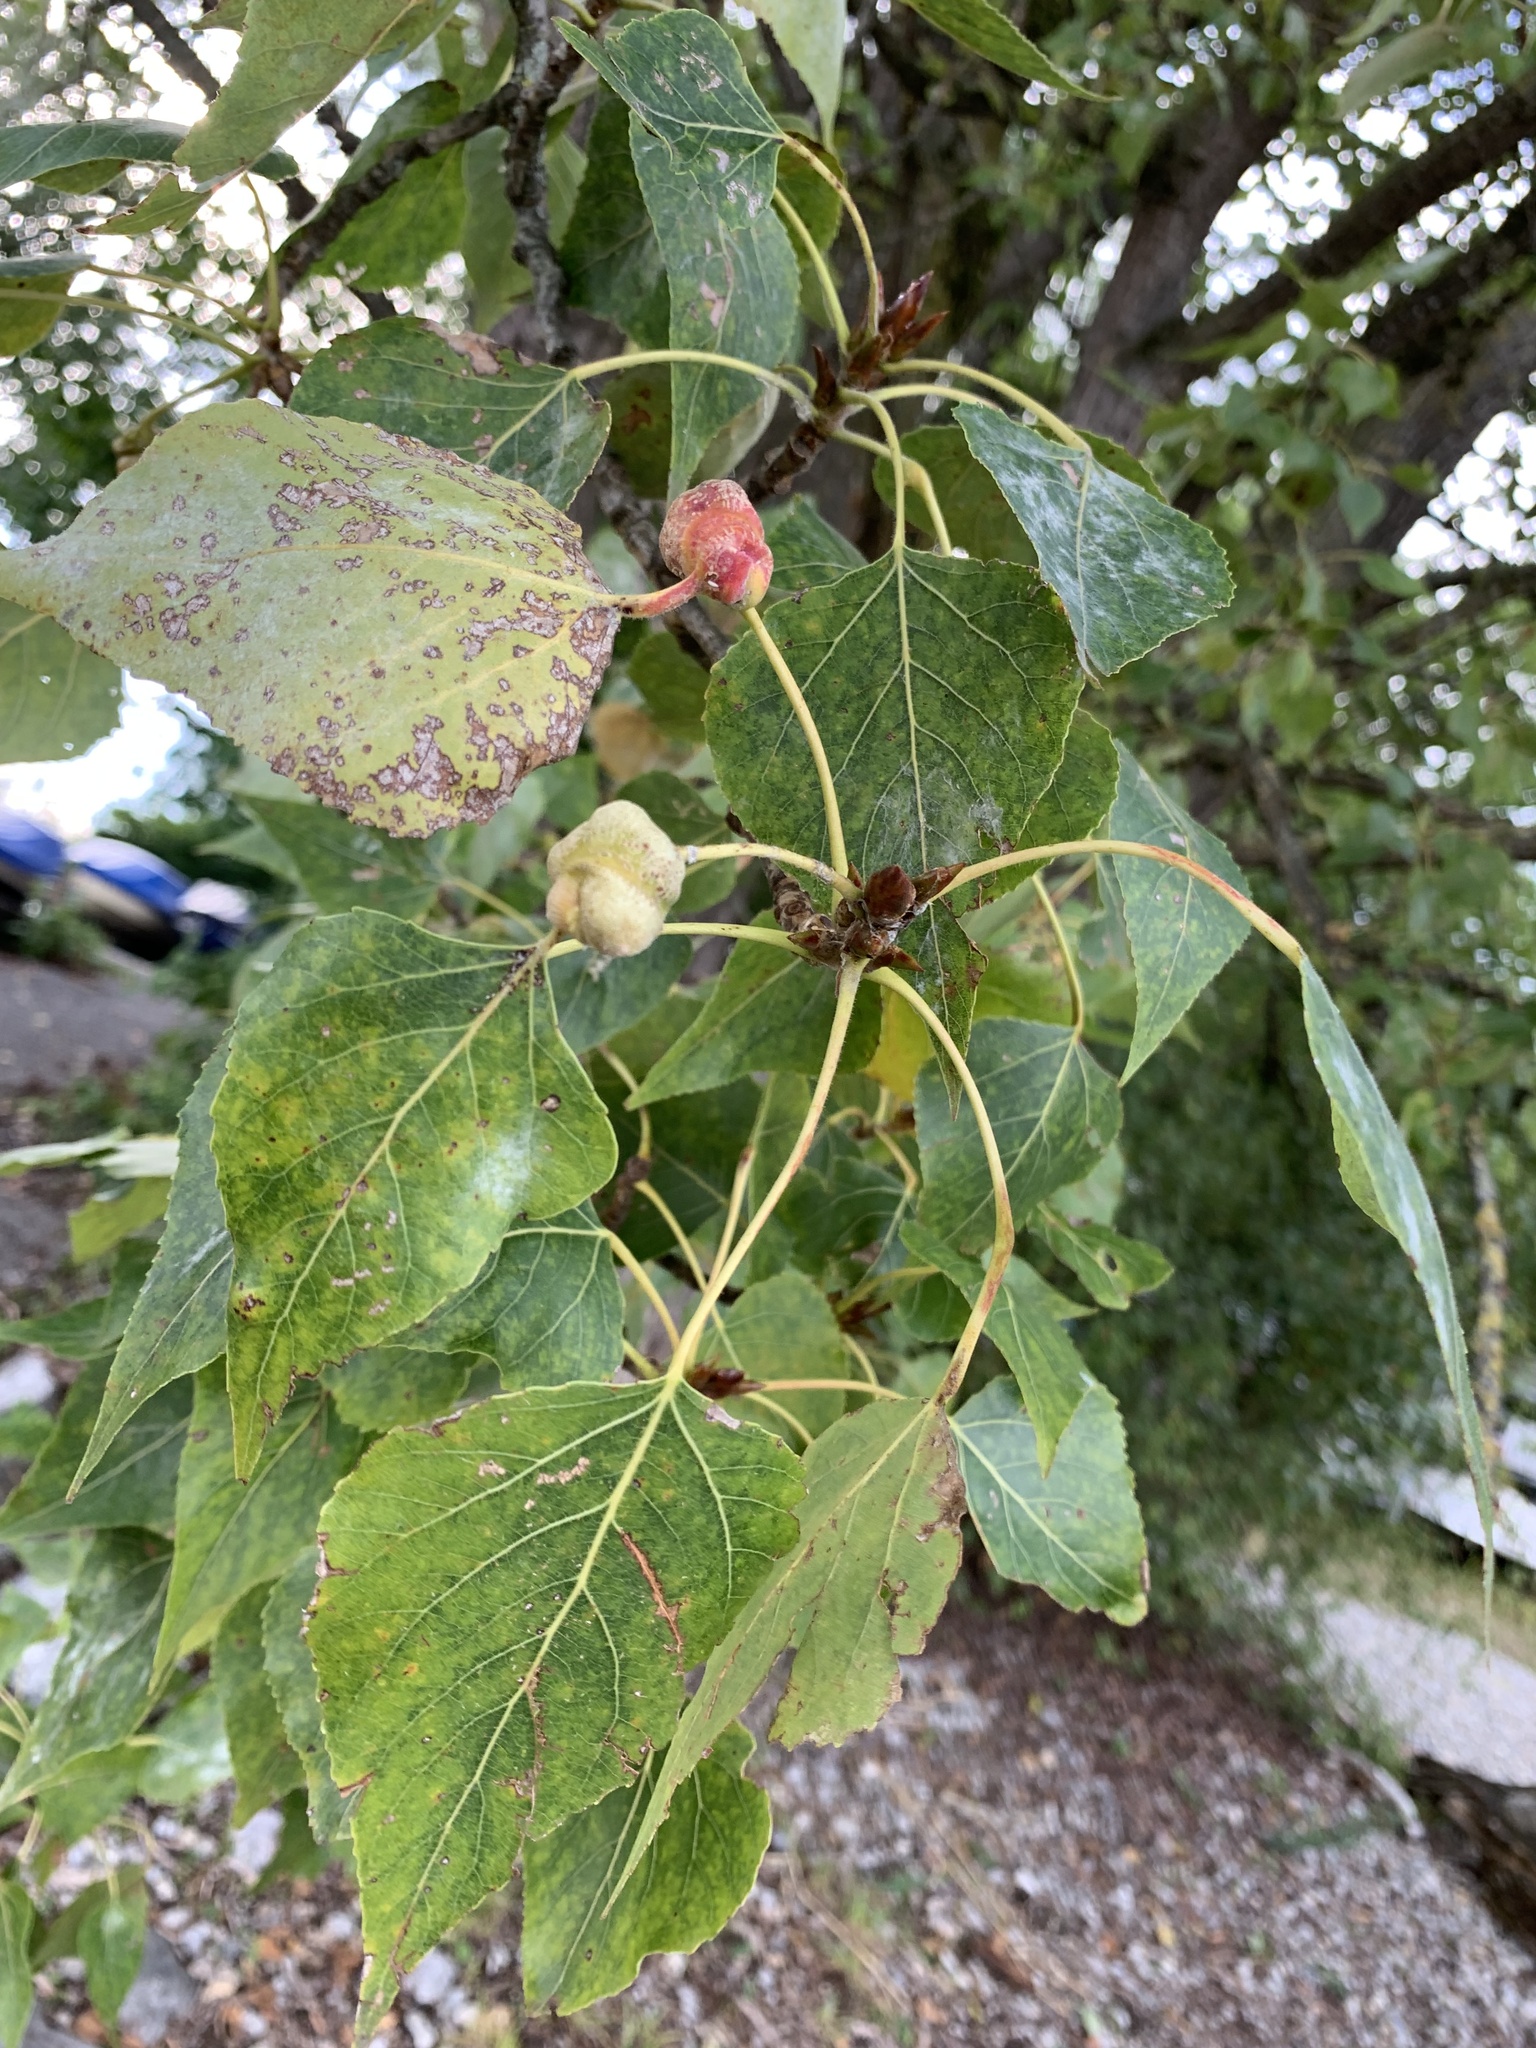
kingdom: Animalia
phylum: Arthropoda
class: Insecta
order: Hemiptera
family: Aphididae
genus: Pemphigus
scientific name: Pemphigus bursarius
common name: Lettuce aphid
